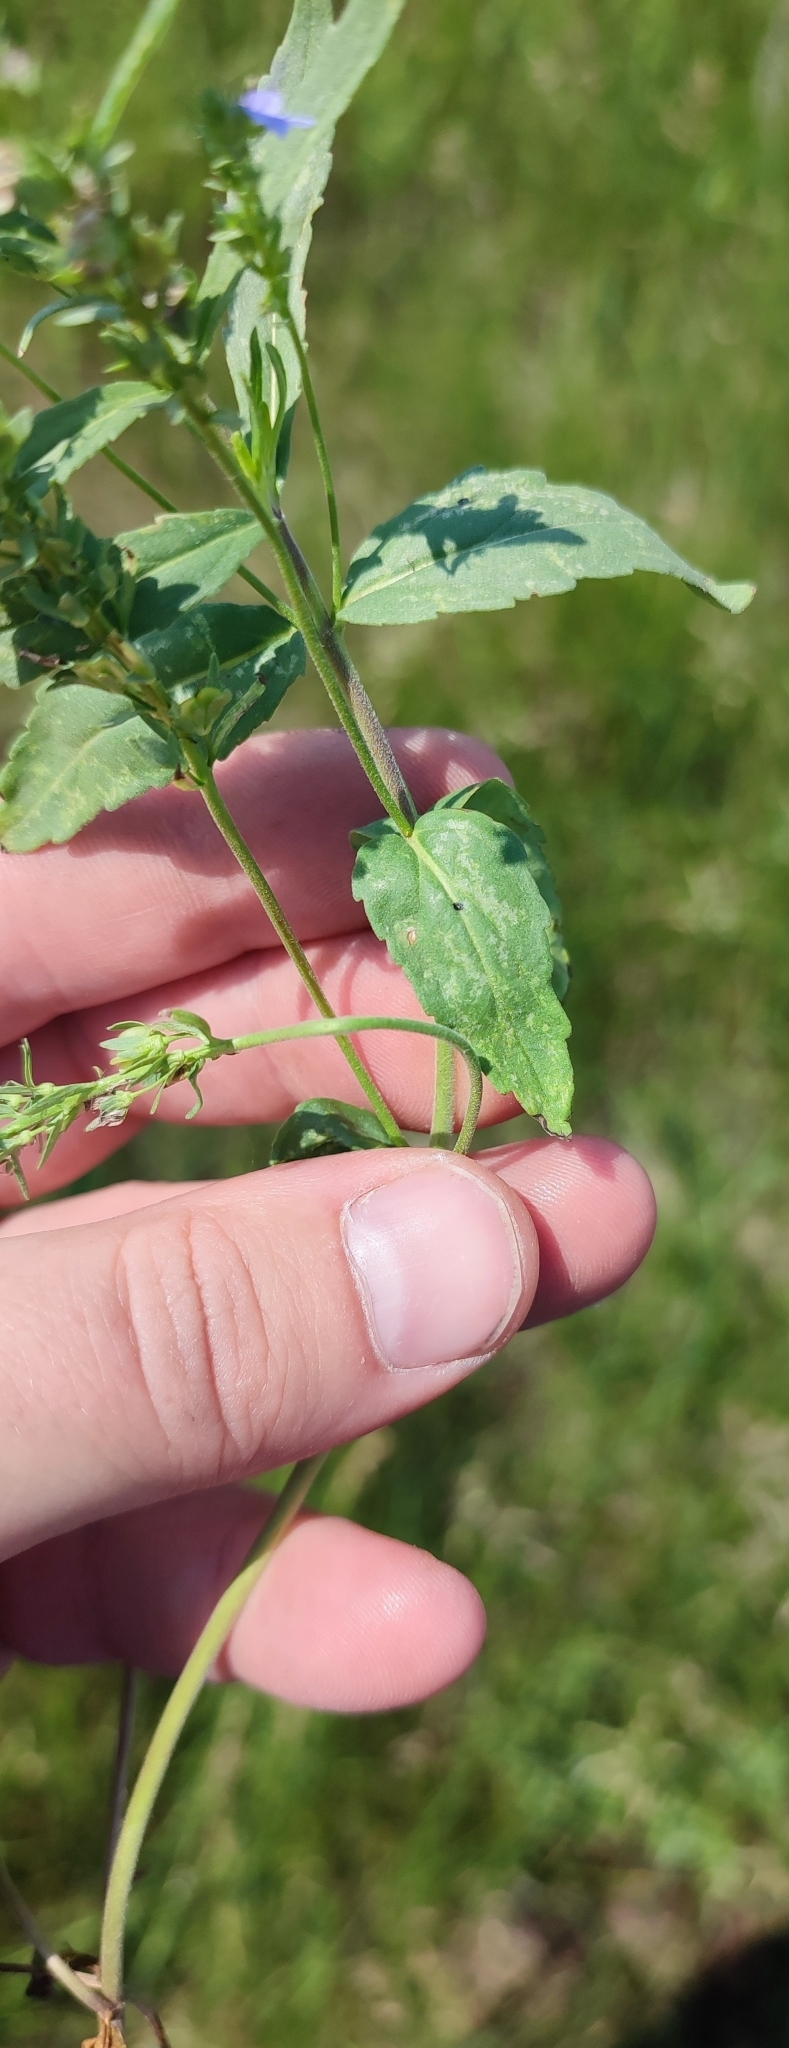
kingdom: Plantae
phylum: Tracheophyta
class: Magnoliopsida
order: Lamiales
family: Plantaginaceae
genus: Veronica
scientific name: Veronica teucrium
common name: Large speedwell
